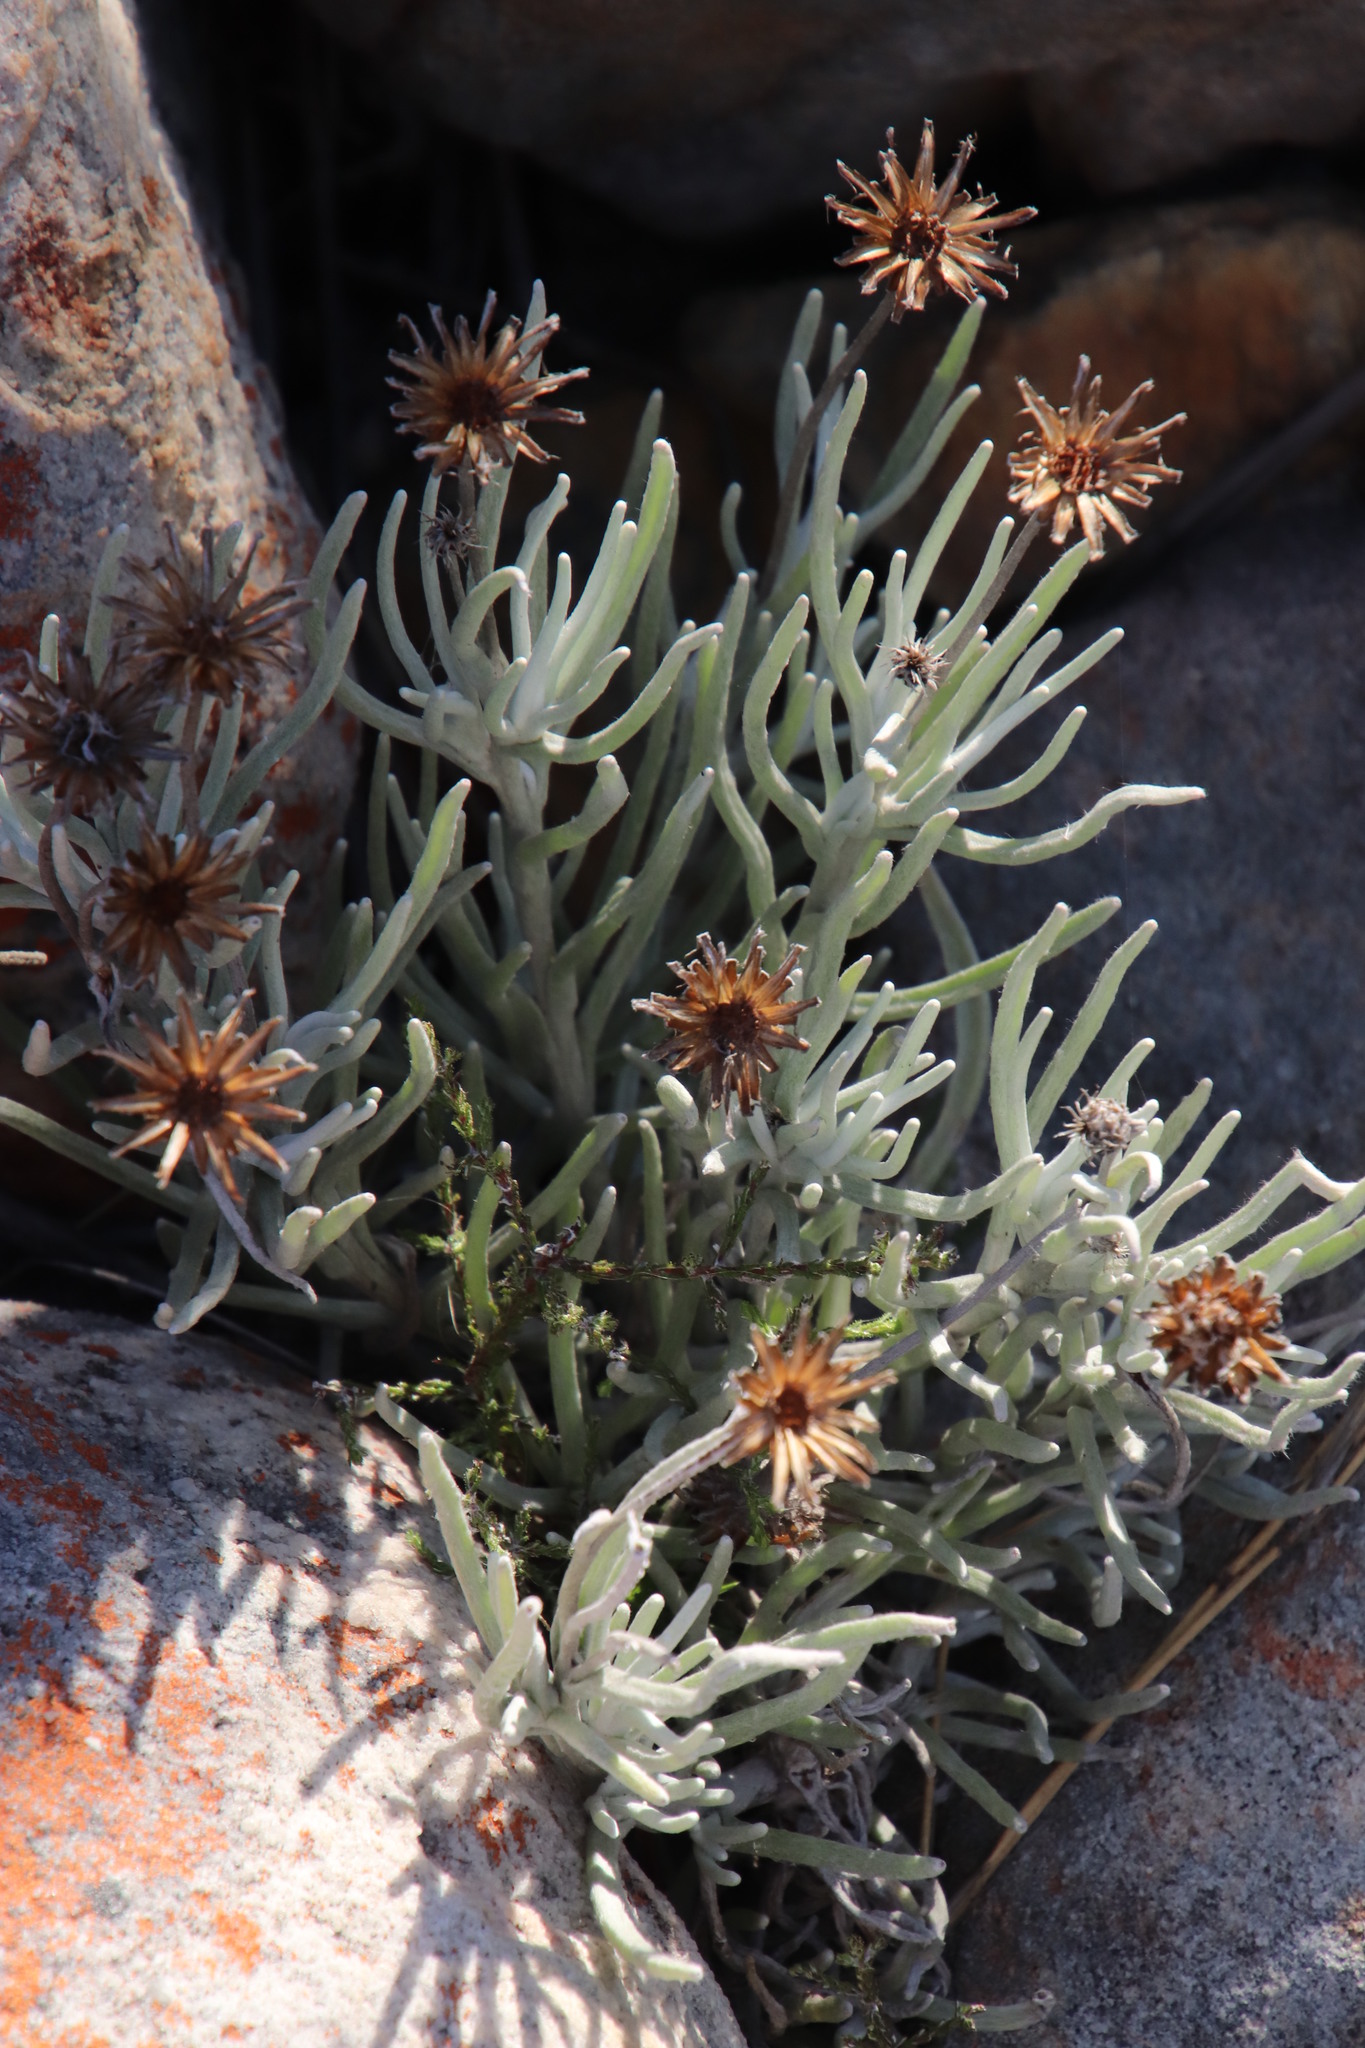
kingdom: Plantae
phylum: Tracheophyta
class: Magnoliopsida
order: Asterales
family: Asteraceae
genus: Syncarpha
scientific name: Syncarpha gnaphaloides
